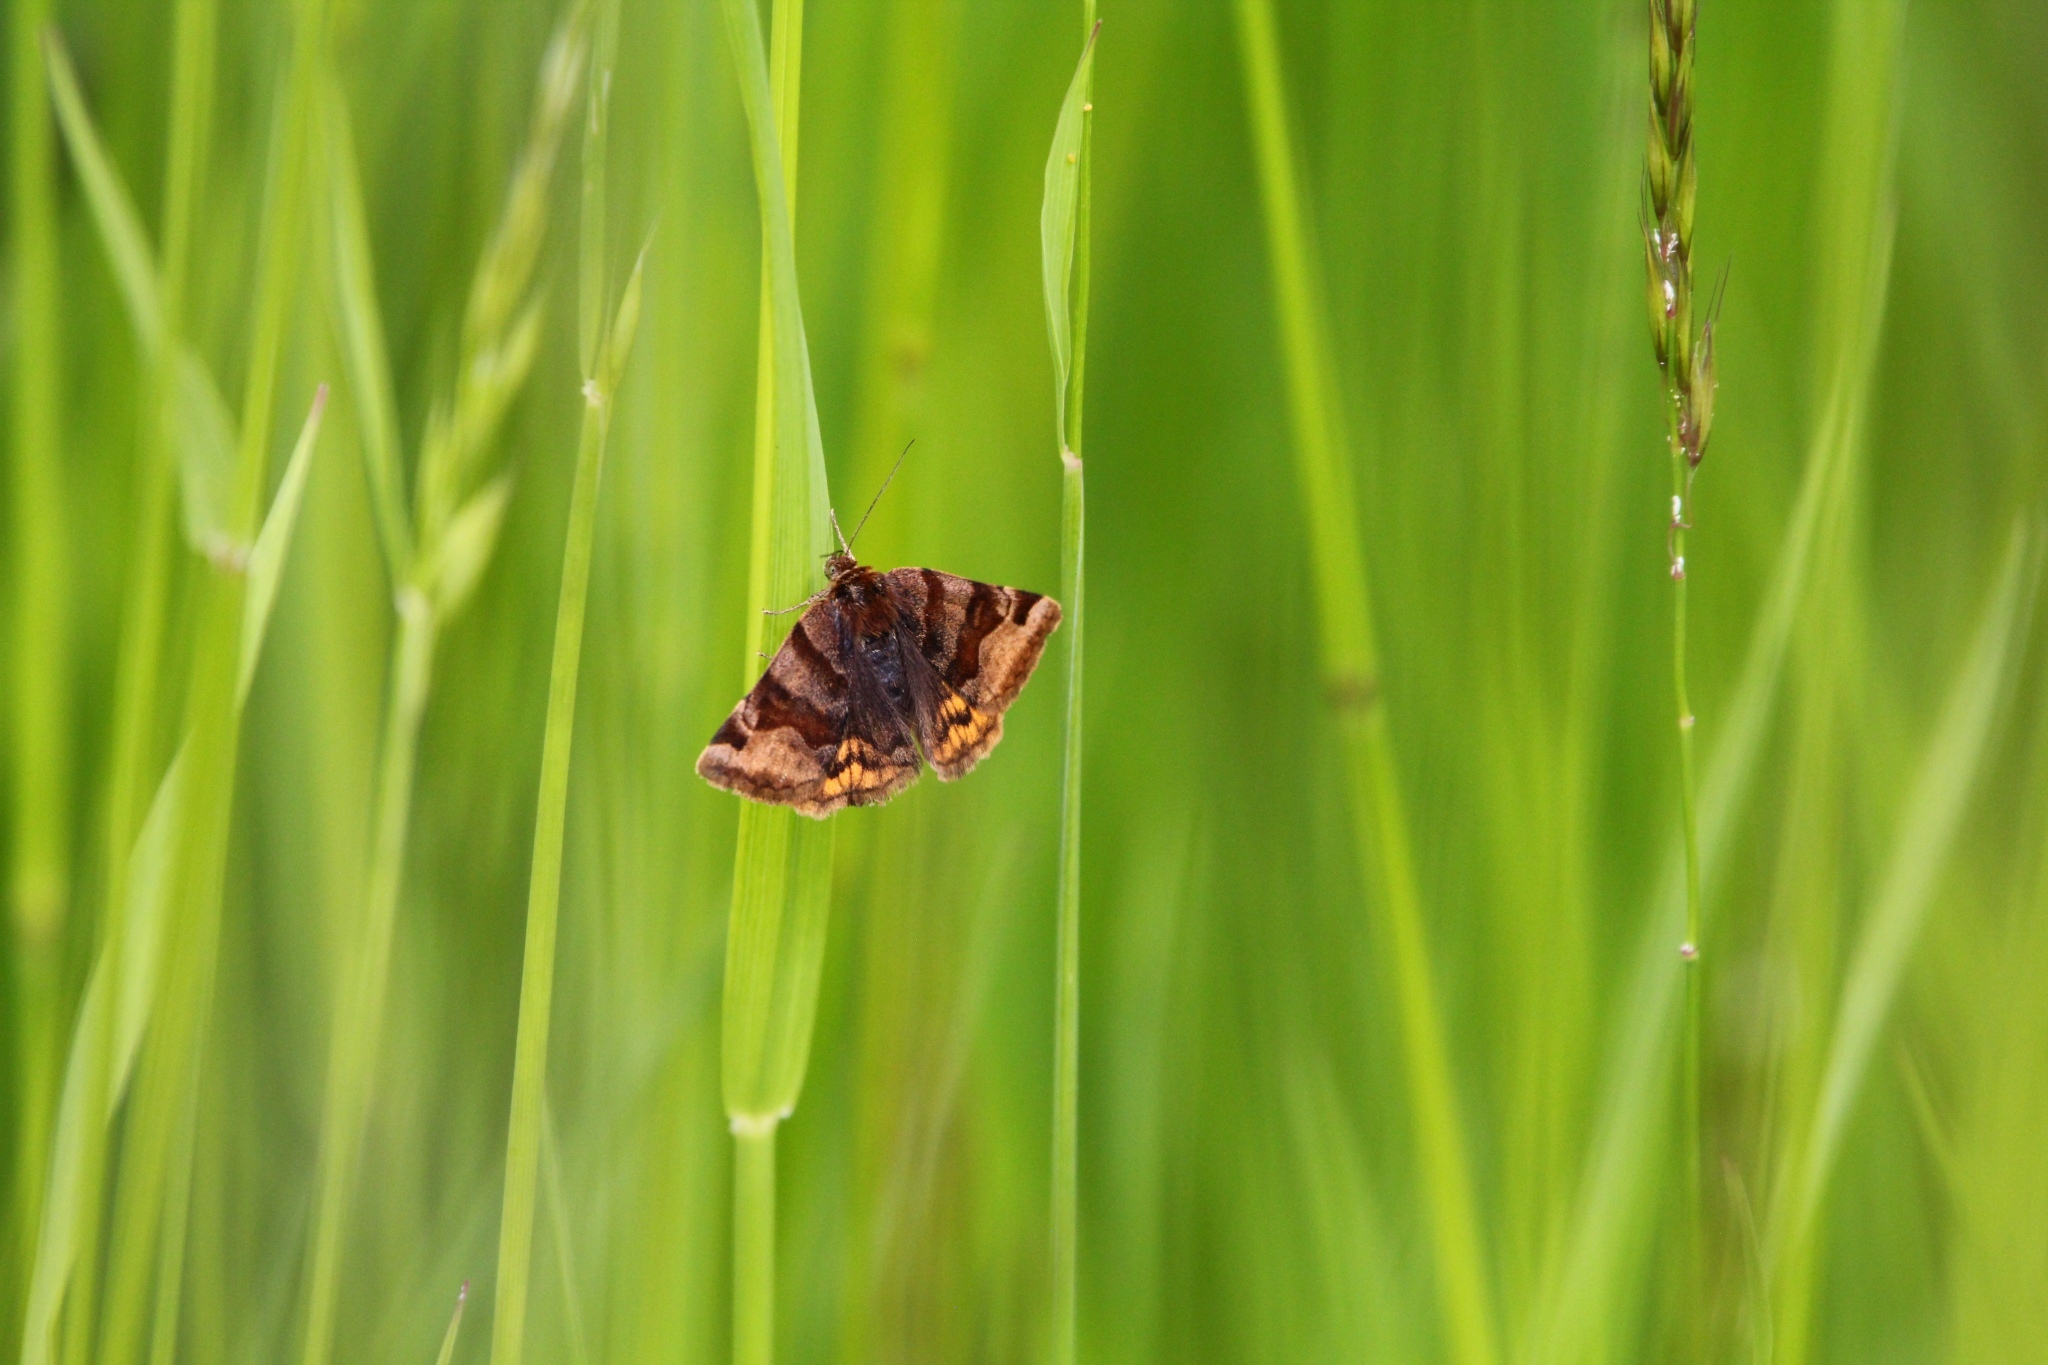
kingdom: Animalia
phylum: Arthropoda
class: Insecta
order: Lepidoptera
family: Erebidae
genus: Euclidia
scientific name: Euclidia glyphica
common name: Burnet companion
